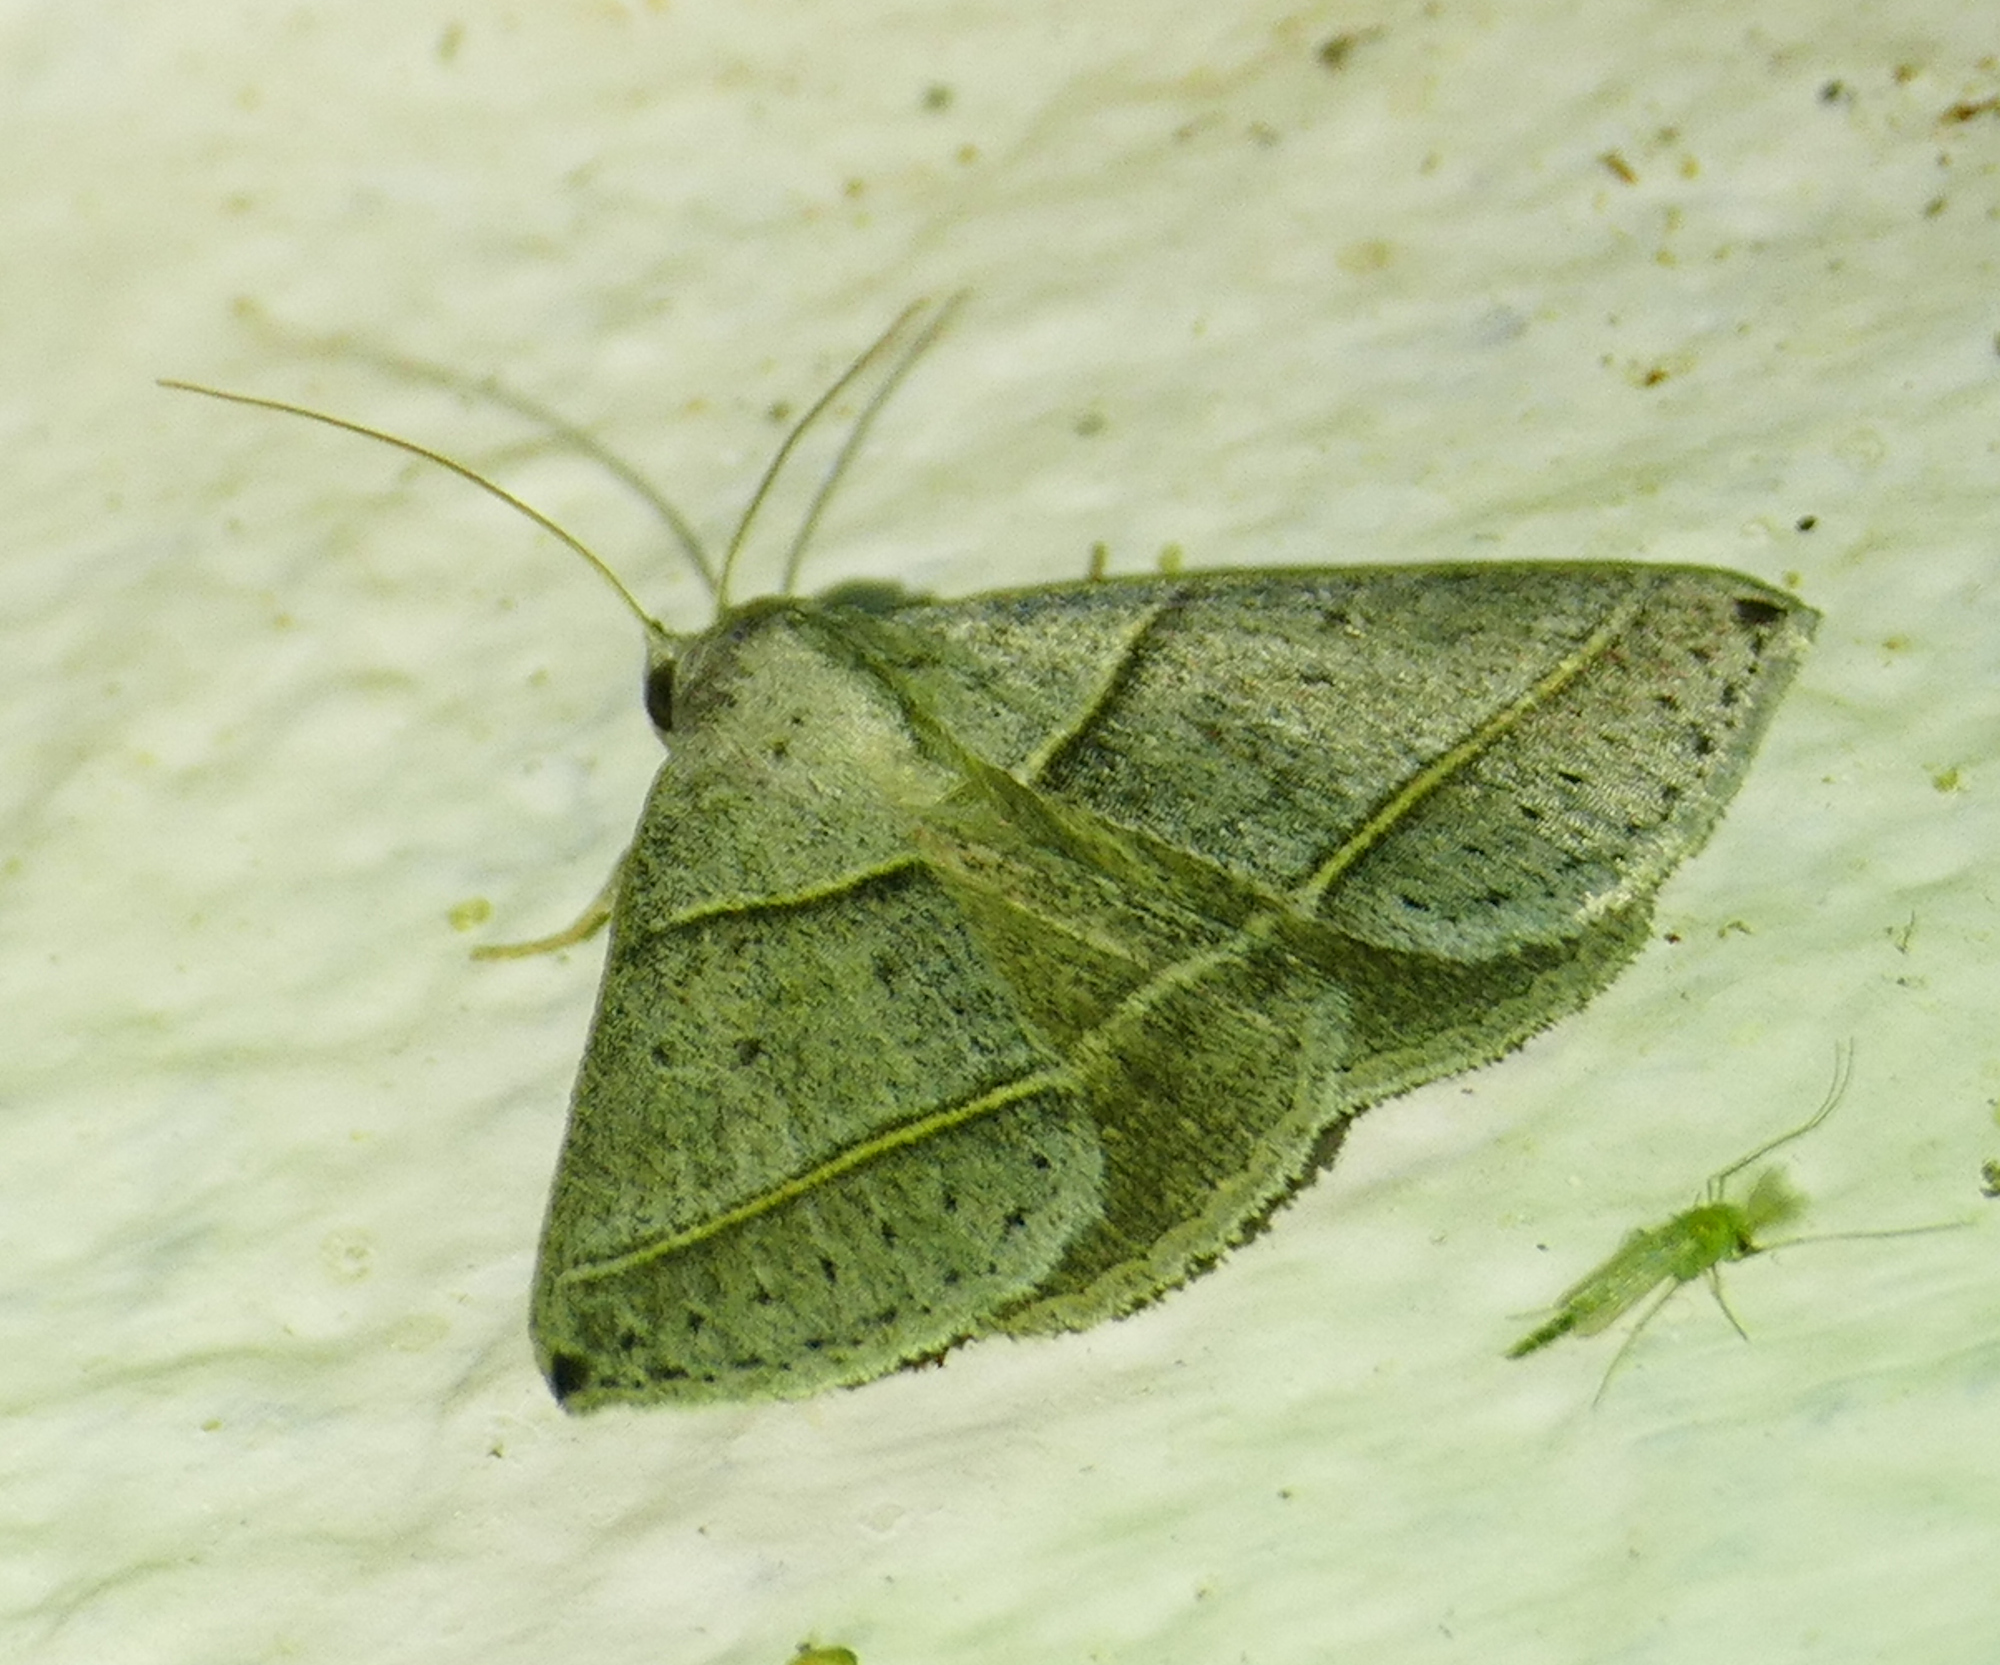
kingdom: Animalia
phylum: Arthropoda
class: Insecta
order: Lepidoptera
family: Erebidae
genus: Ptichodis
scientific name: Ptichodis vinculum
